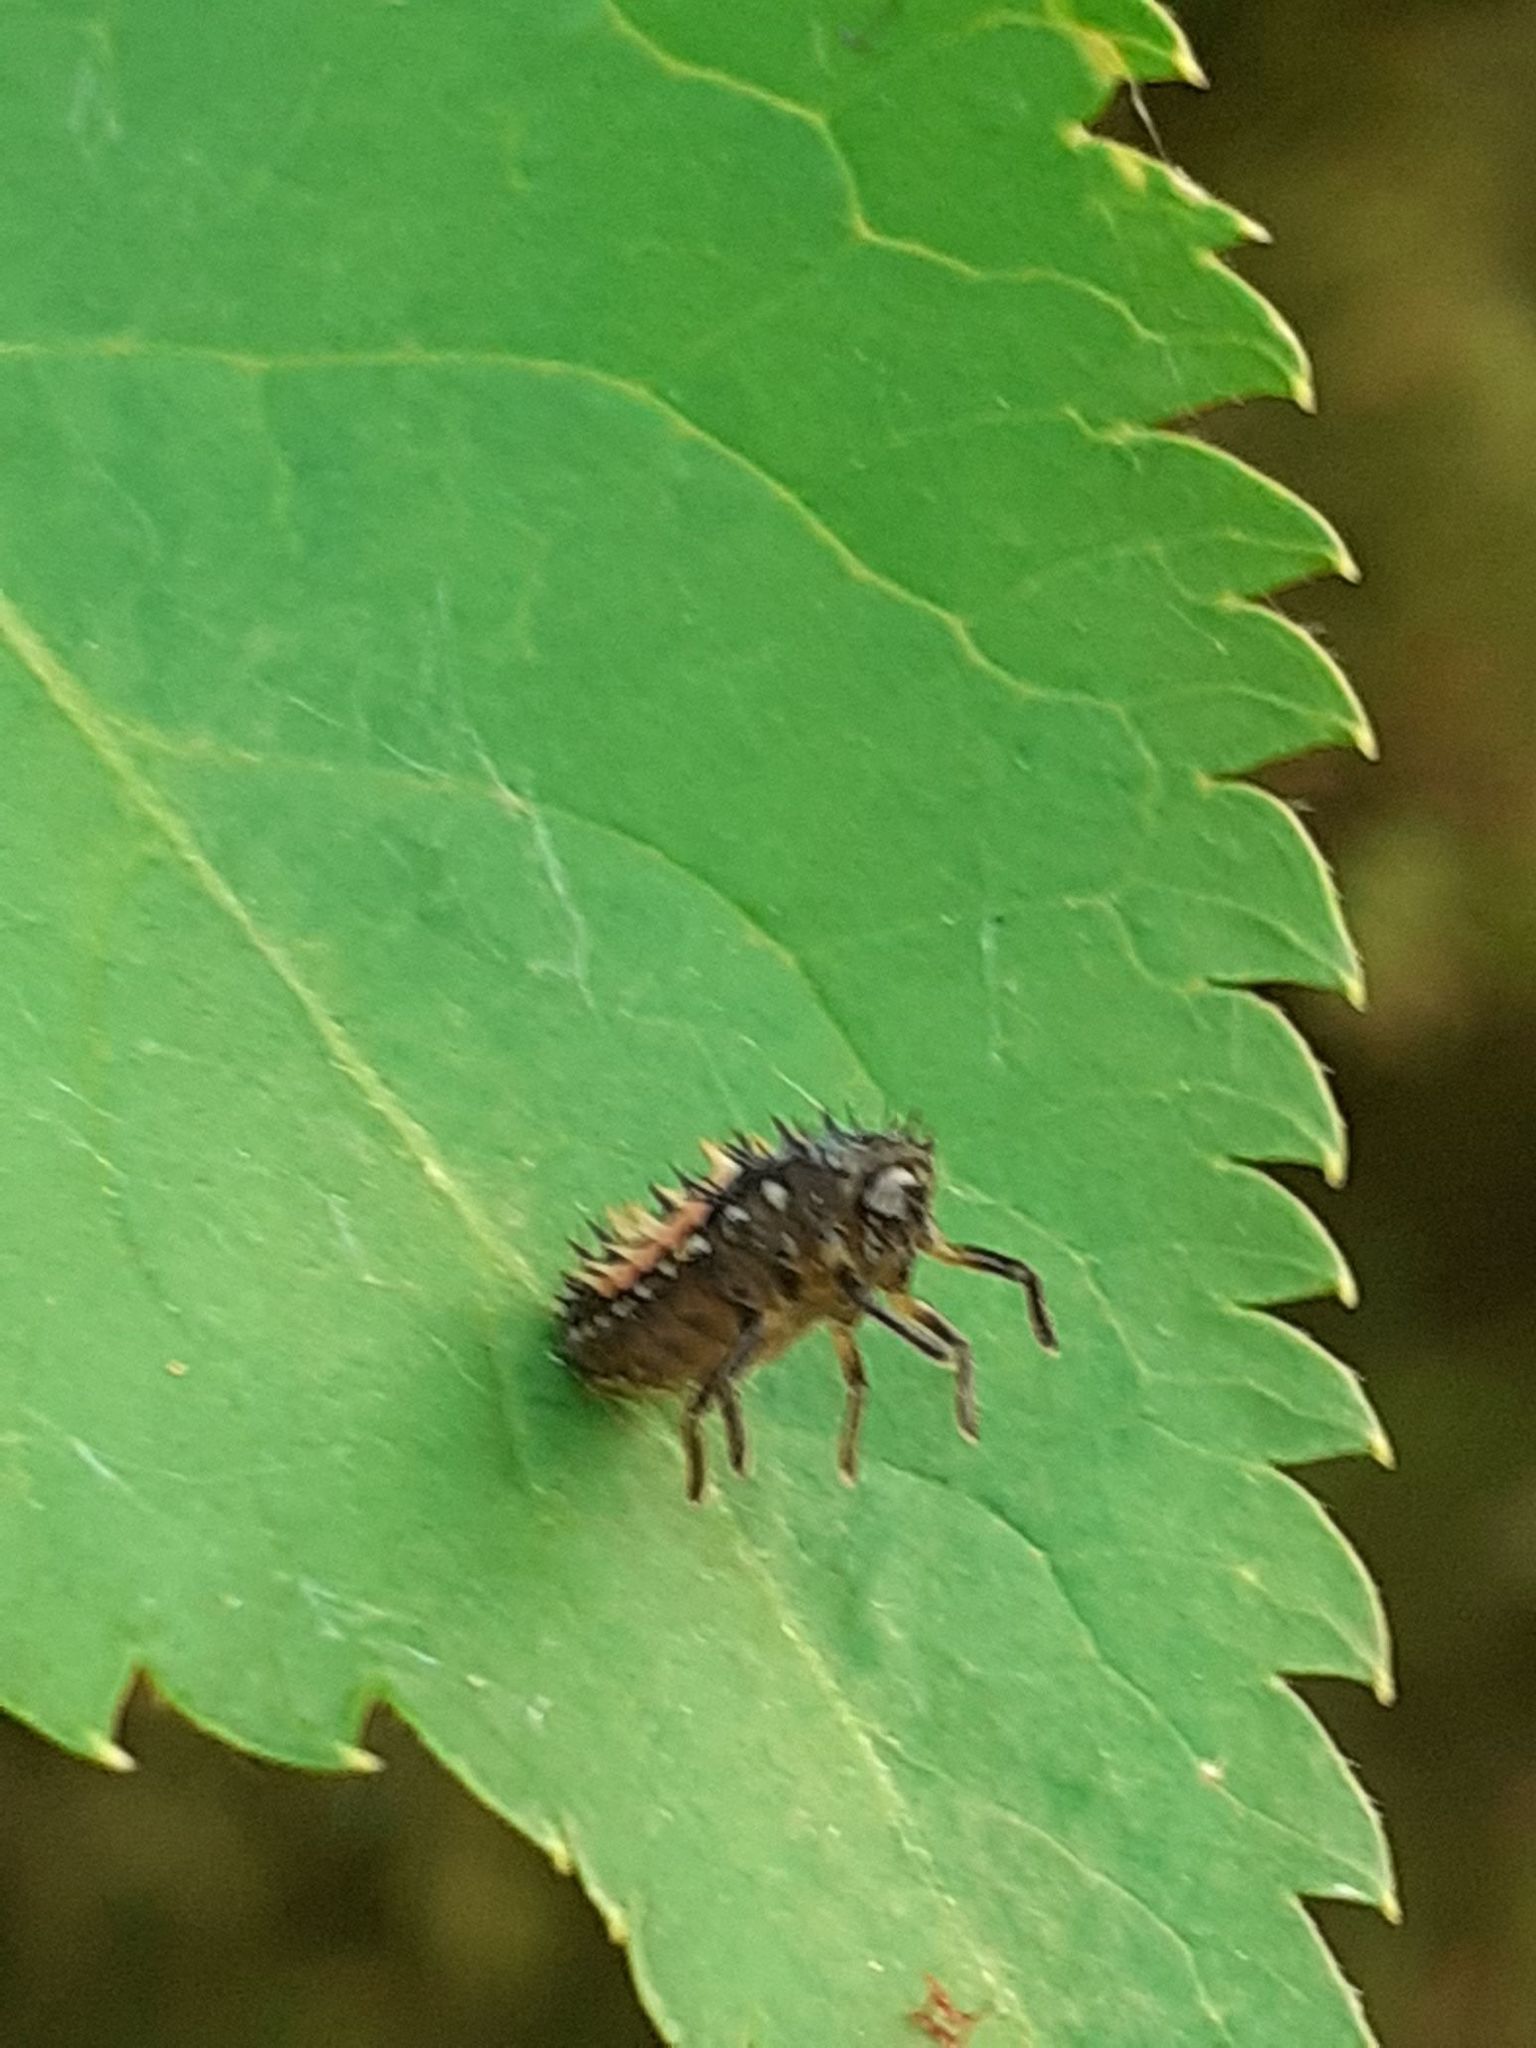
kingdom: Animalia
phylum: Arthropoda
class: Insecta
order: Coleoptera
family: Coccinellidae
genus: Harmonia
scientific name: Harmonia axyridis
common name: Harlequin ladybird
